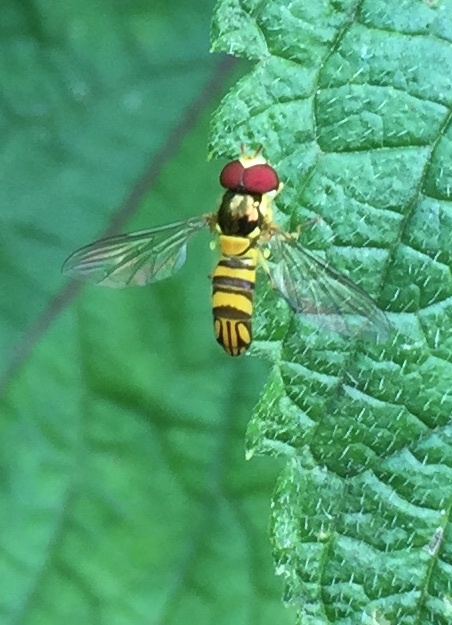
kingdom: Animalia
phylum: Arthropoda
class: Insecta
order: Diptera
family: Syrphidae
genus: Allograpta
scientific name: Allograpta obliqua
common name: Common oblique syrphid
